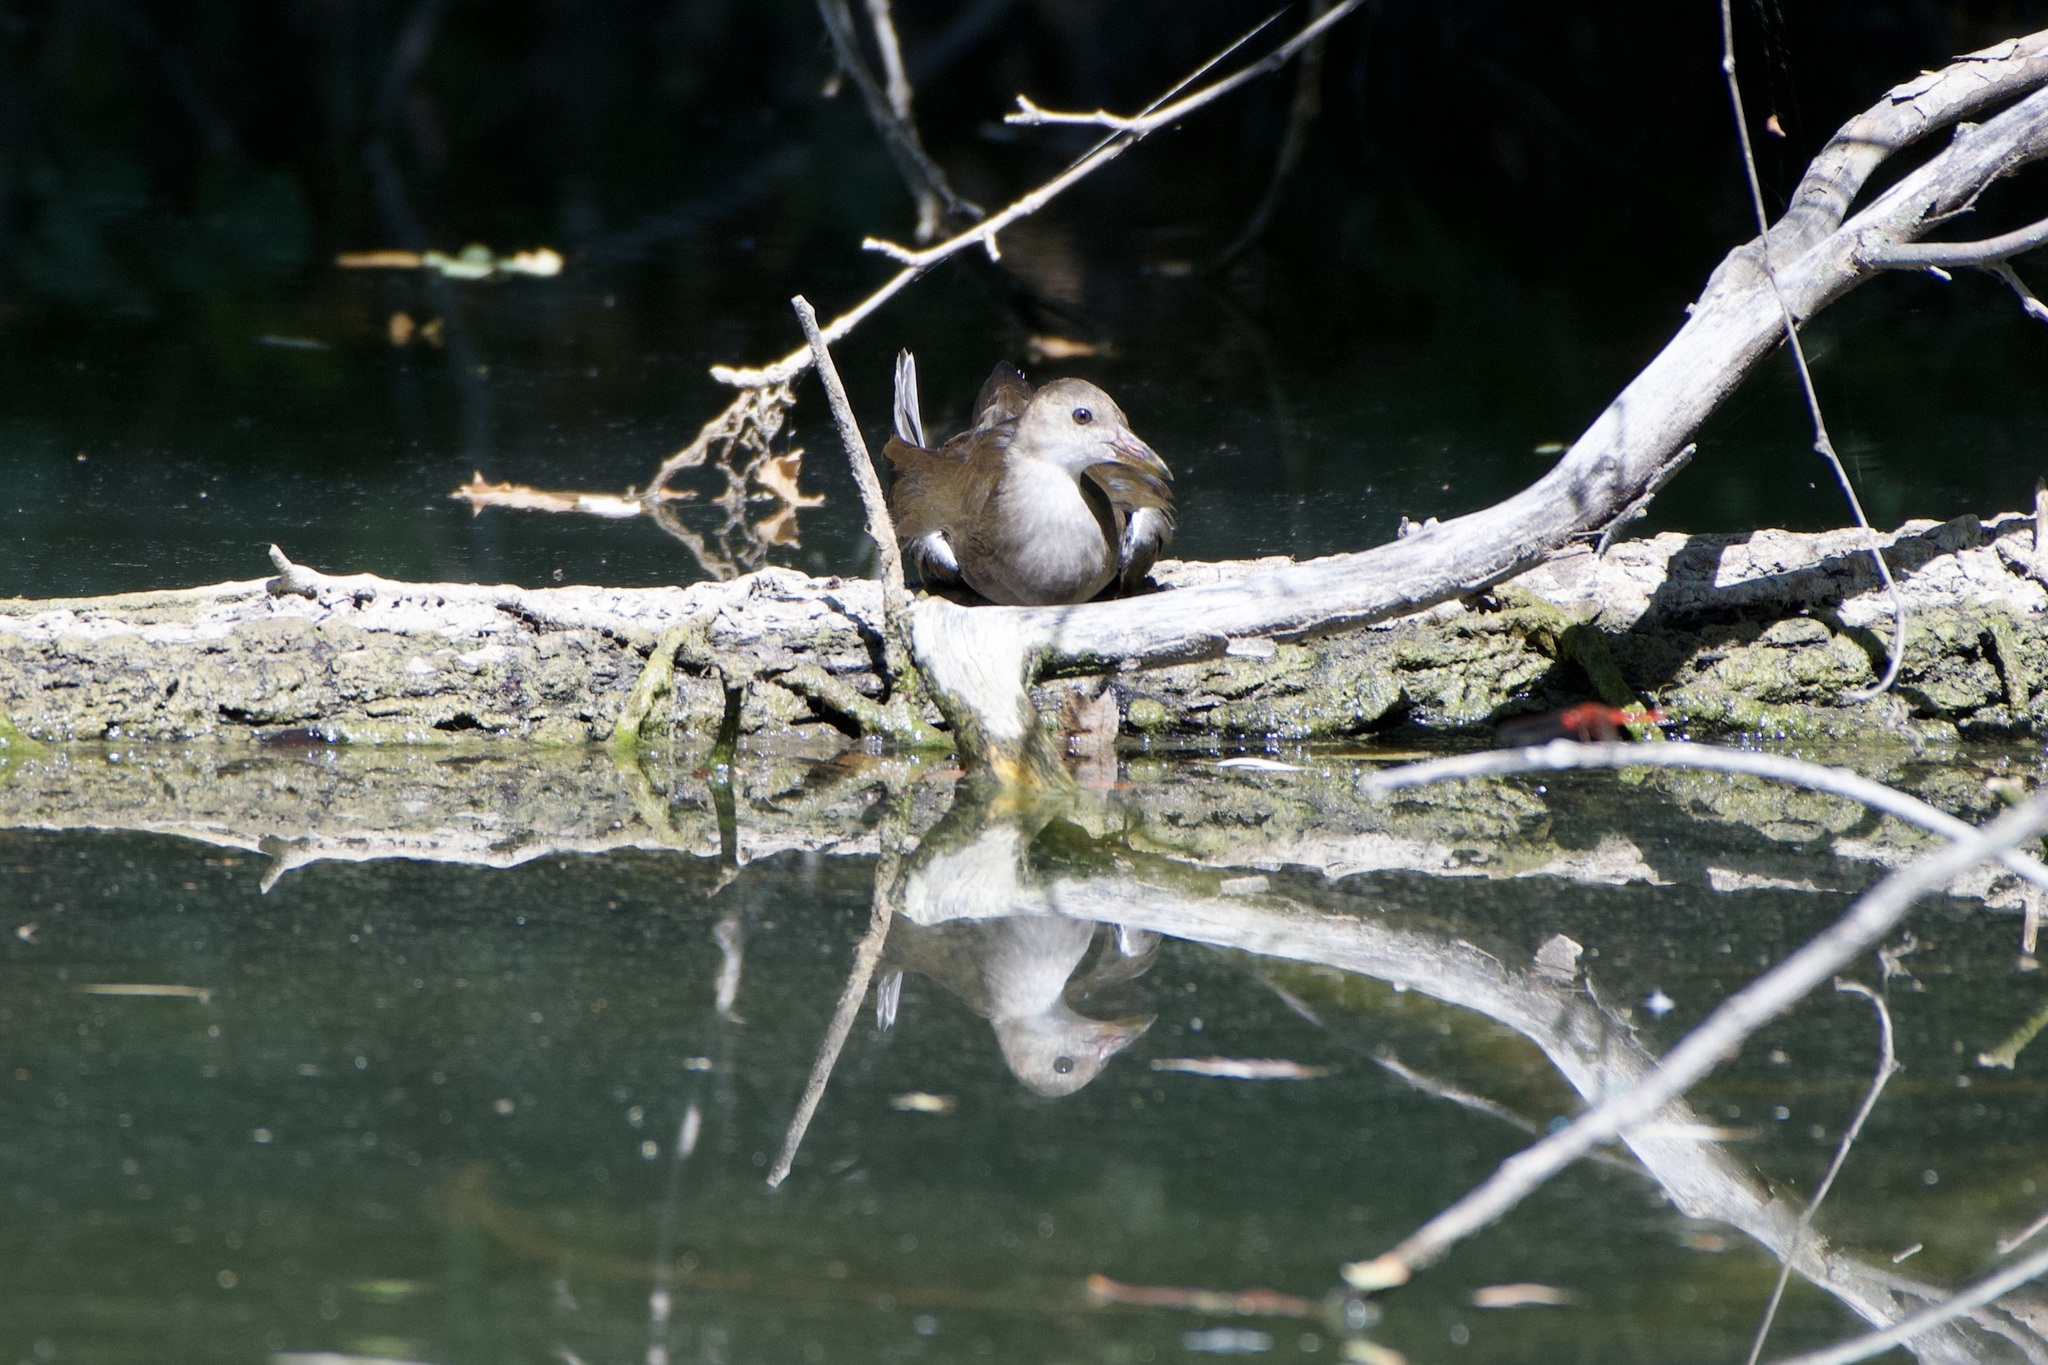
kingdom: Animalia
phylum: Chordata
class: Aves
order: Gruiformes
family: Rallidae
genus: Gallinula
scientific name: Gallinula chloropus
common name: Common moorhen
